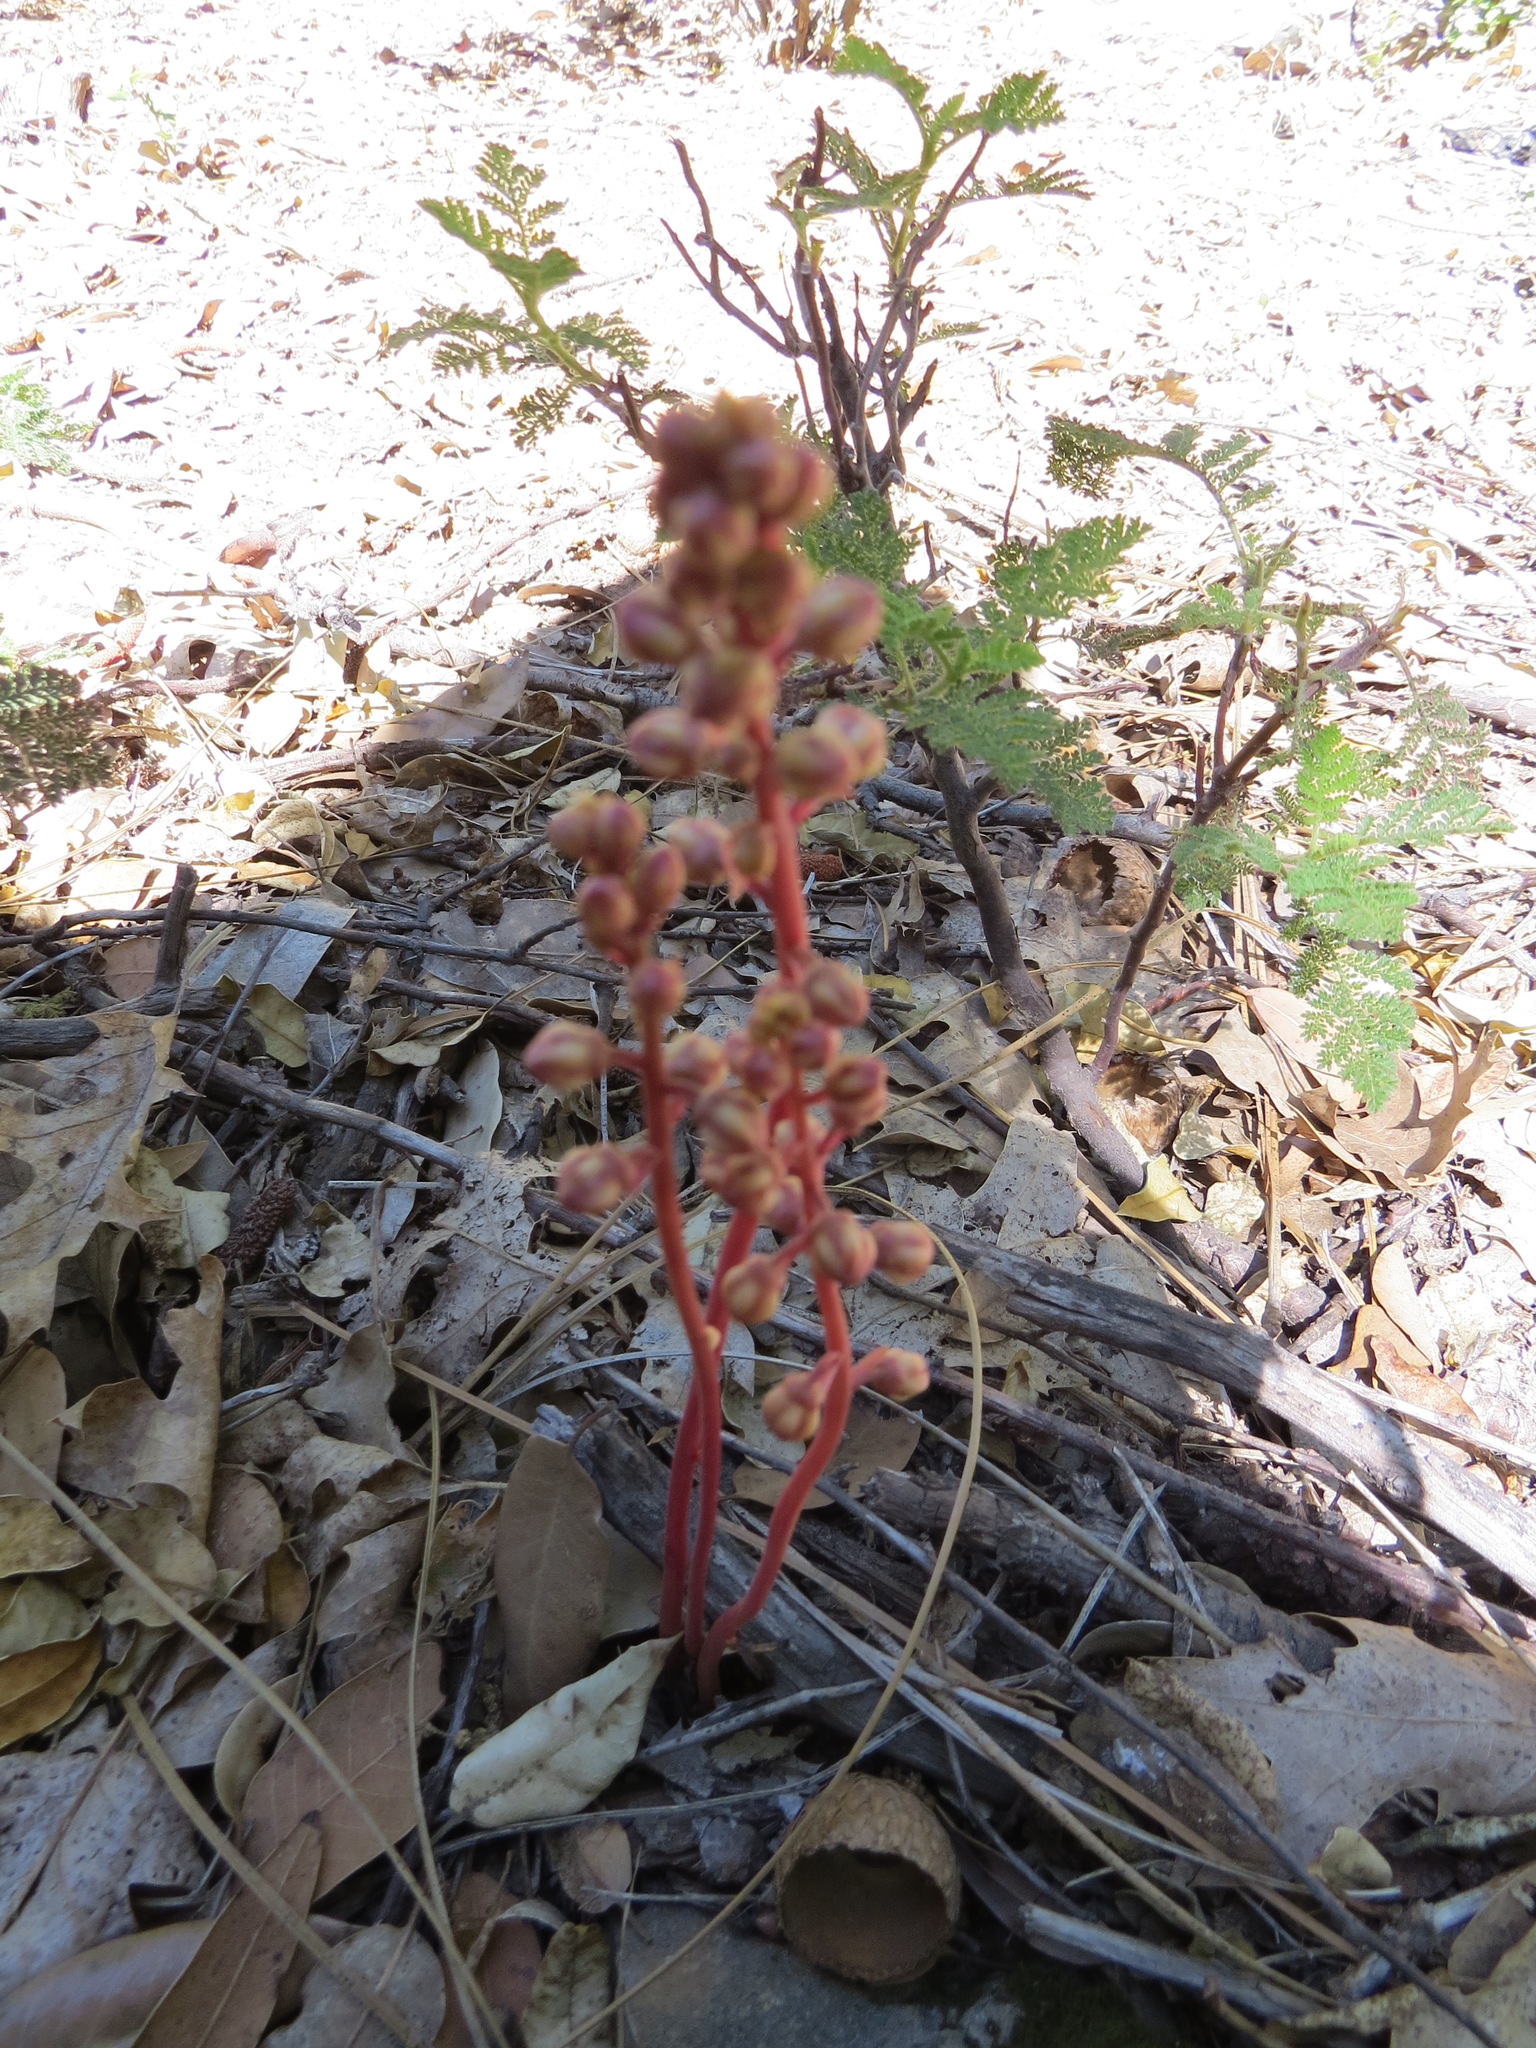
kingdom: Plantae
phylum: Tracheophyta
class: Magnoliopsida
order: Ericales
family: Ericaceae
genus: Pyrola
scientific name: Pyrola aphylla
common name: Leafless wintergreen
